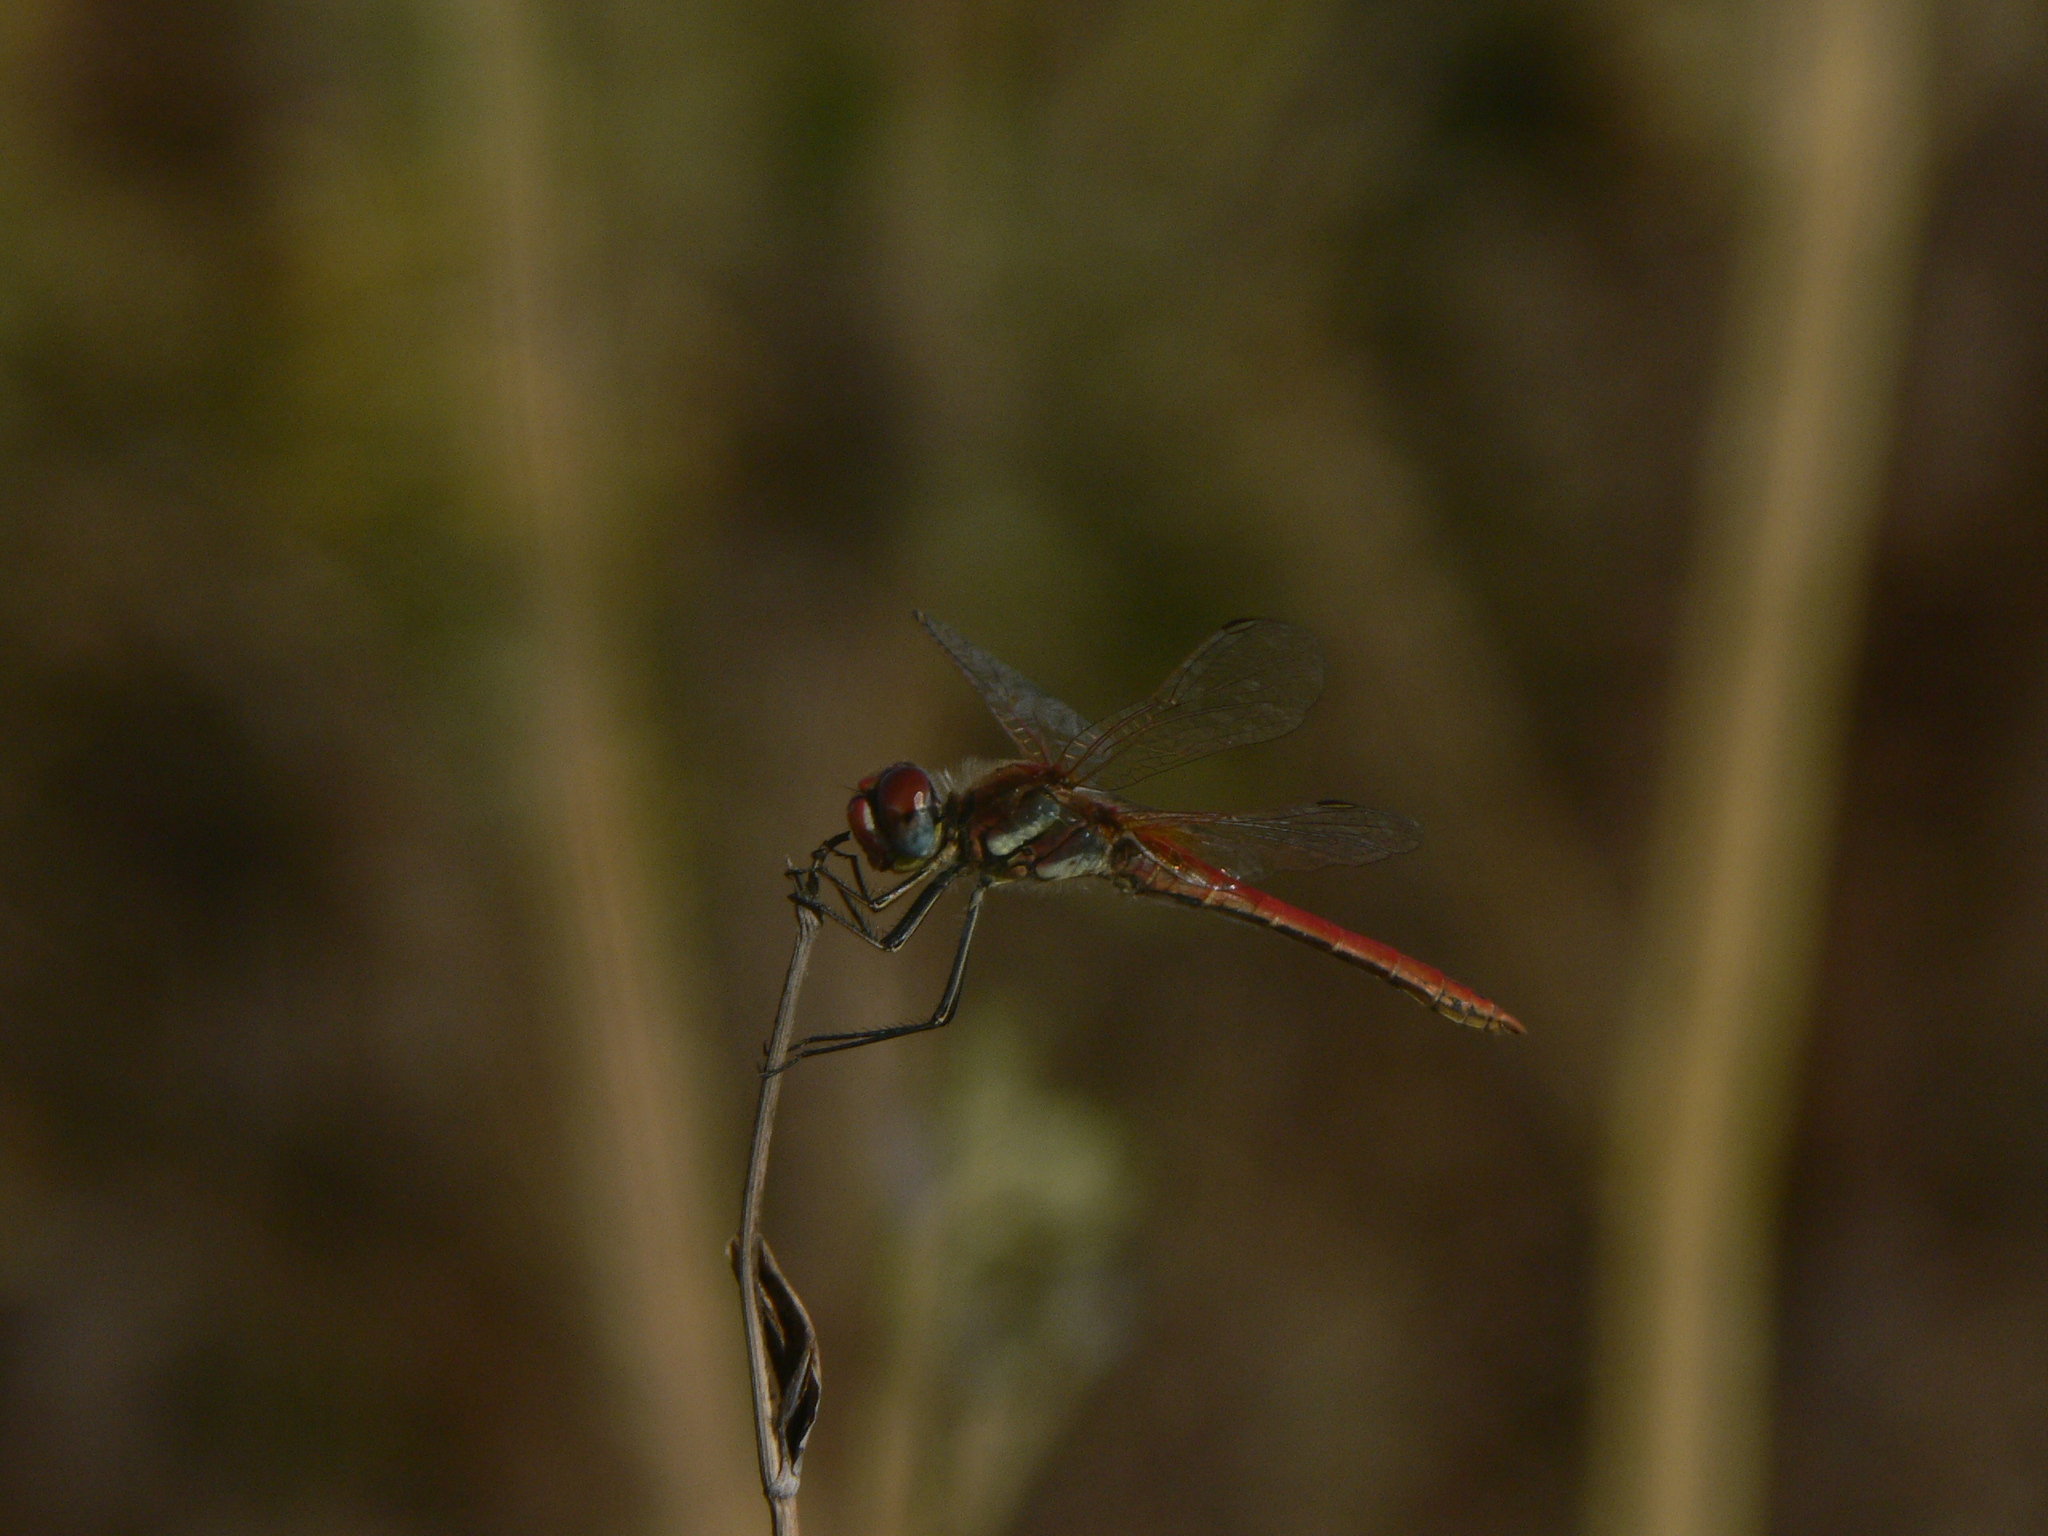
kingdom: Animalia
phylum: Arthropoda
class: Insecta
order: Odonata
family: Libellulidae
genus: Sympetrum
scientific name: Sympetrum fonscolombii
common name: Red-veined darter
